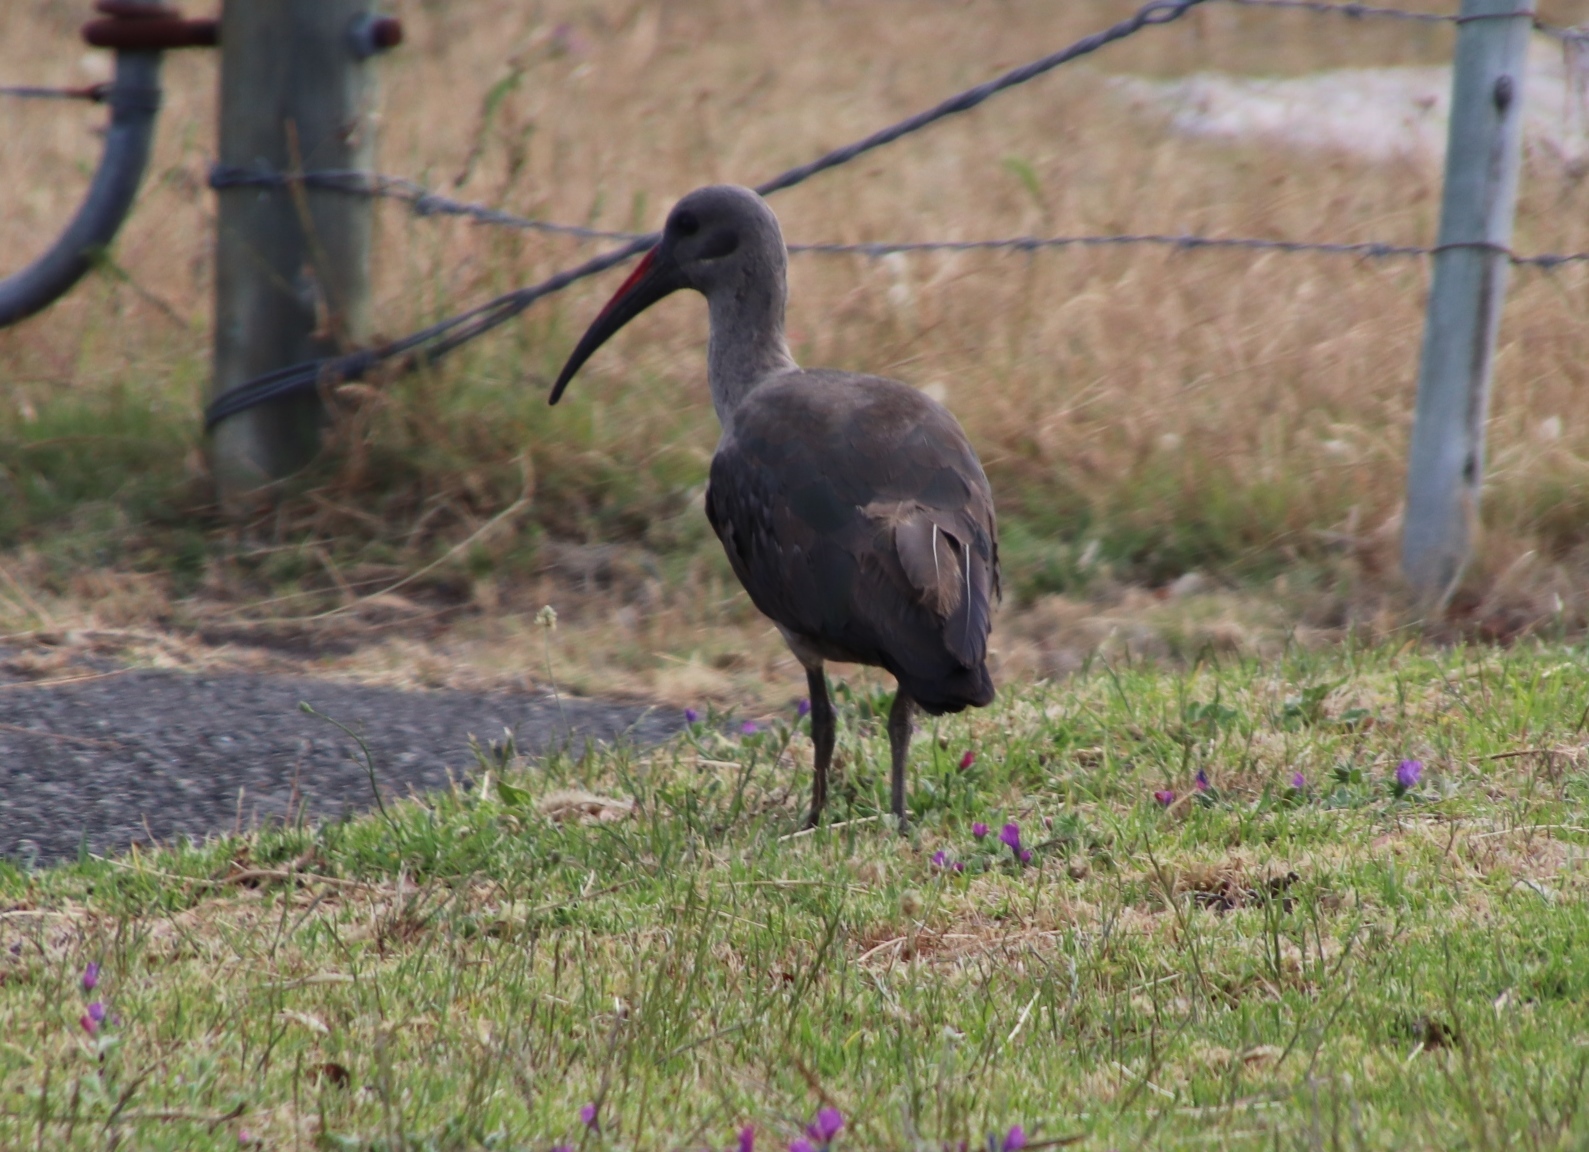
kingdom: Animalia
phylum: Chordata
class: Aves
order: Pelecaniformes
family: Threskiornithidae
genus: Bostrychia
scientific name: Bostrychia hagedash
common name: Hadada ibis
